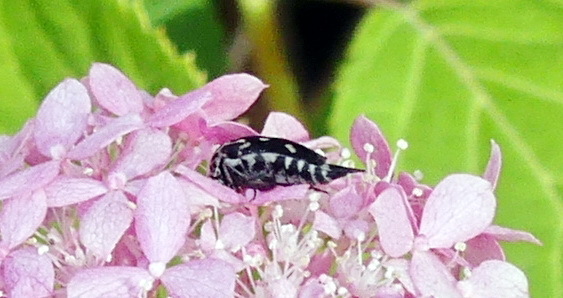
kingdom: Animalia
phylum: Arthropoda
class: Insecta
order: Coleoptera
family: Mordellidae
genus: Hoshihananomia
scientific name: Hoshihananomia octopunctata
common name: Eight-spotted tumbling flower beetle
